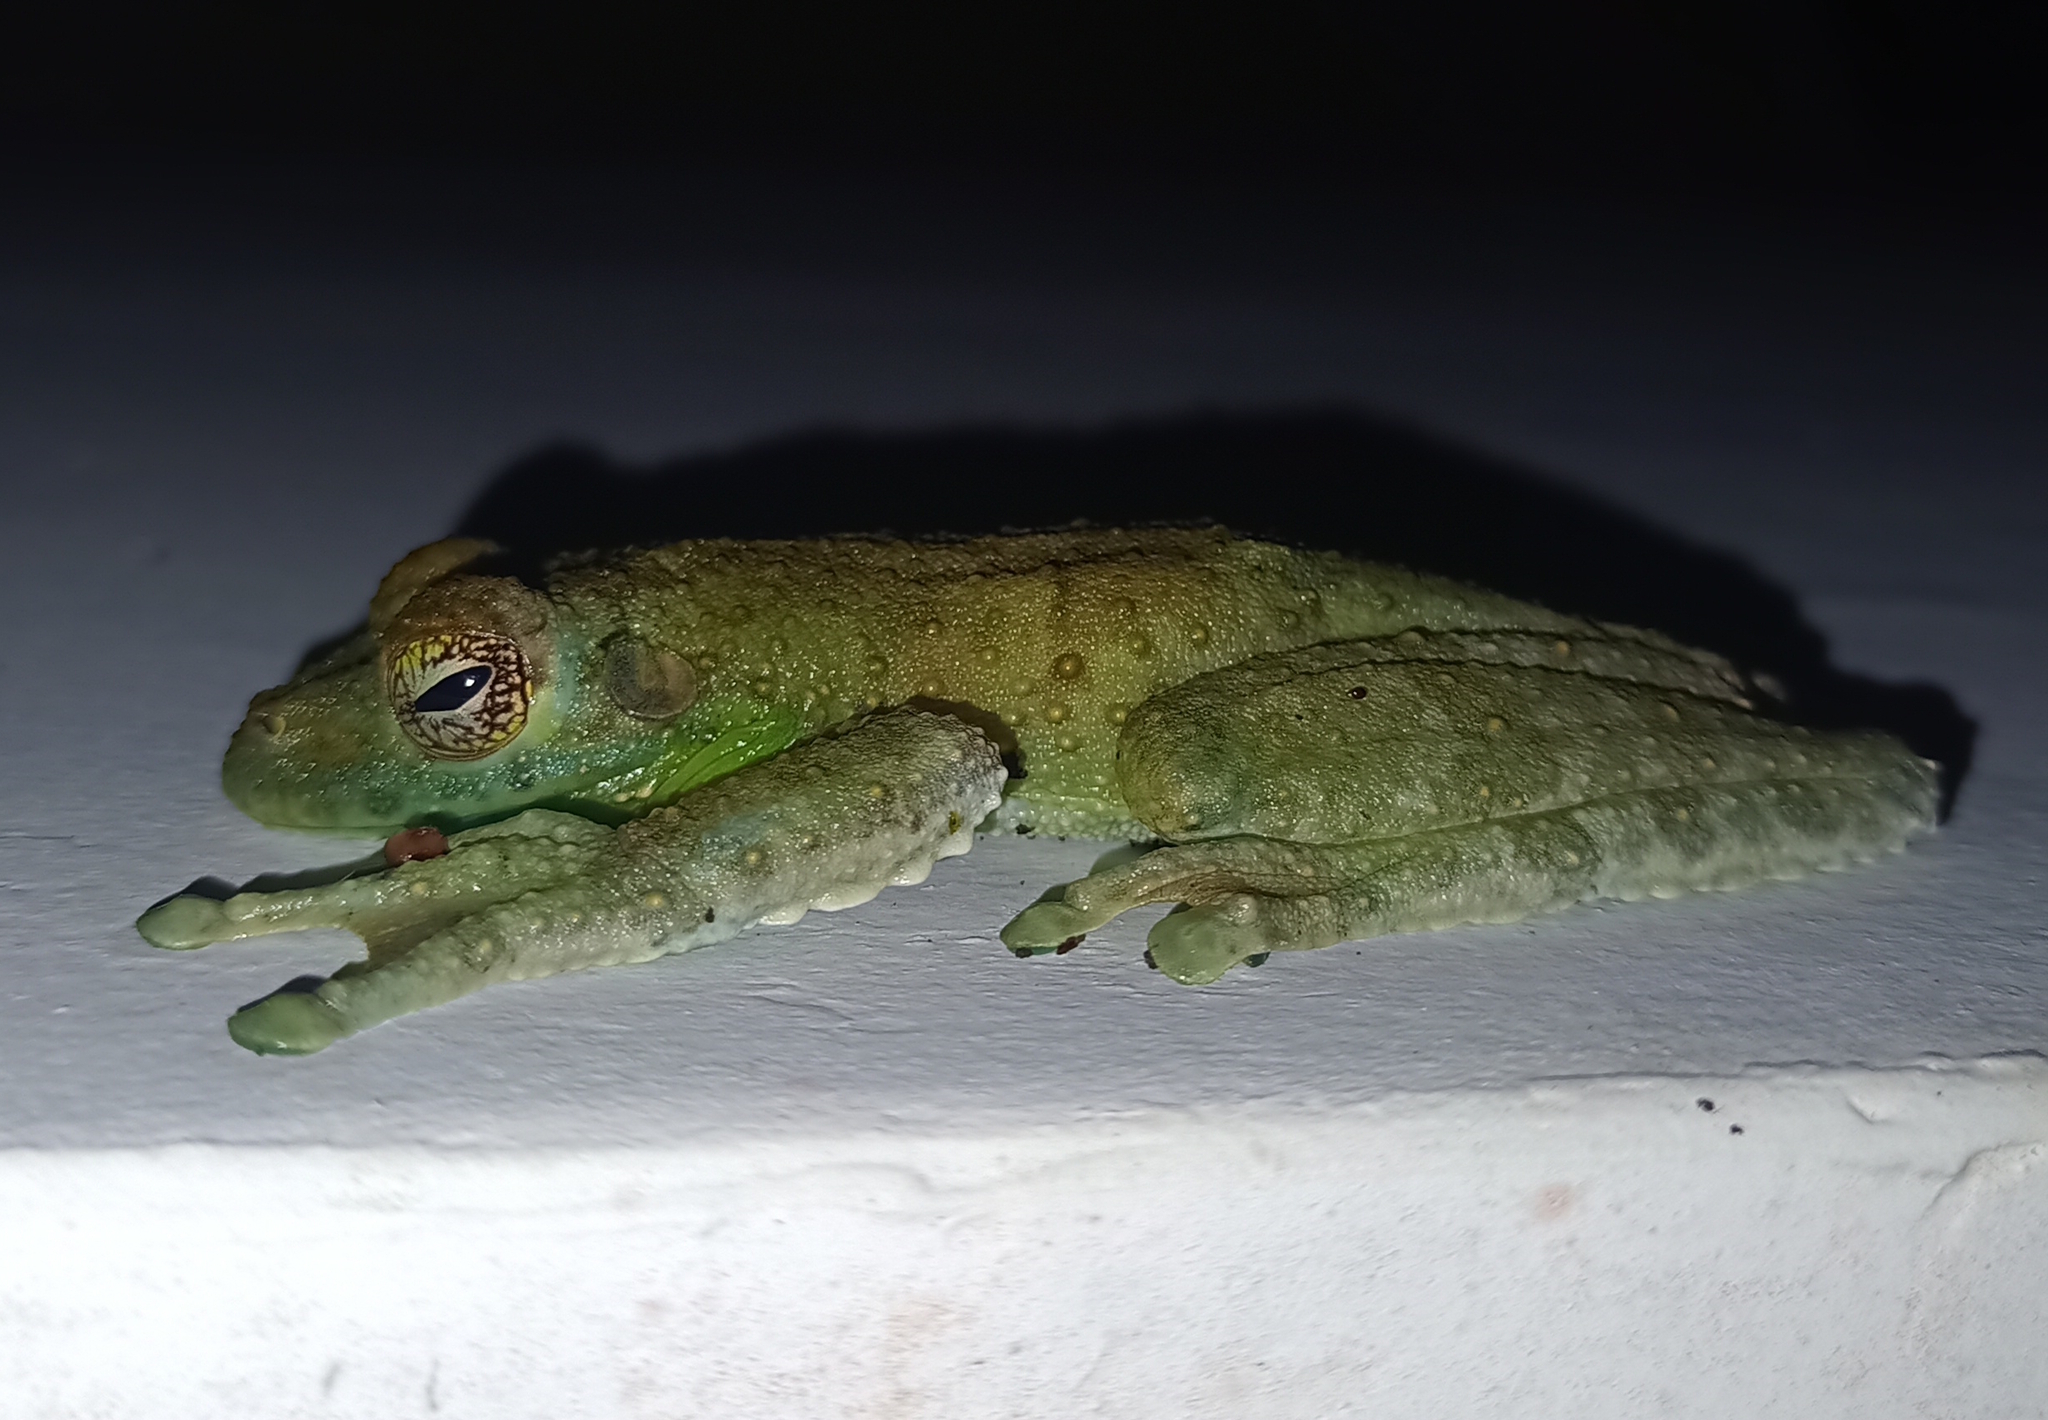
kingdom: Animalia
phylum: Chordata
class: Amphibia
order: Anura
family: Hylidae
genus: Itapotihyla
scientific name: Itapotihyla langsdorffii
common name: Ocellated treefrog
